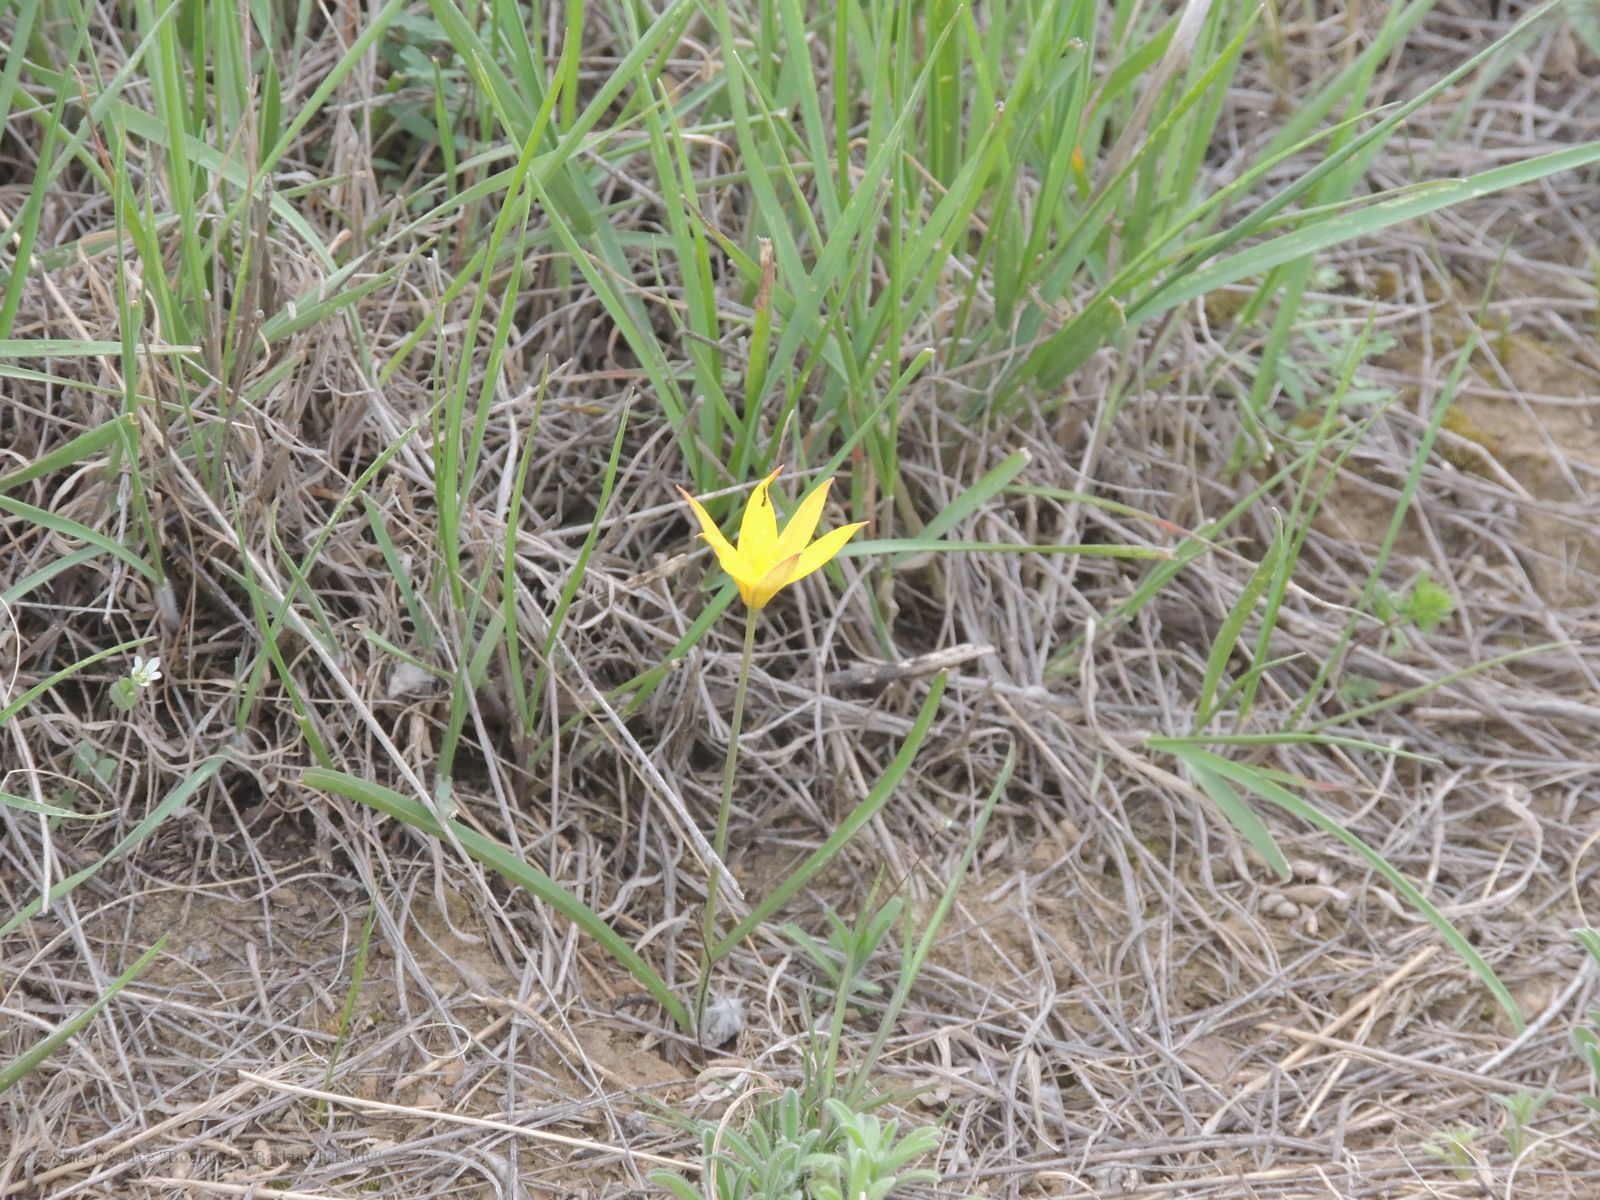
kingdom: Plantae
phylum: Tracheophyta
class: Liliopsida
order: Liliales
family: Liliaceae
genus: Tulipa
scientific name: Tulipa sylvestris
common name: Wild tulip
